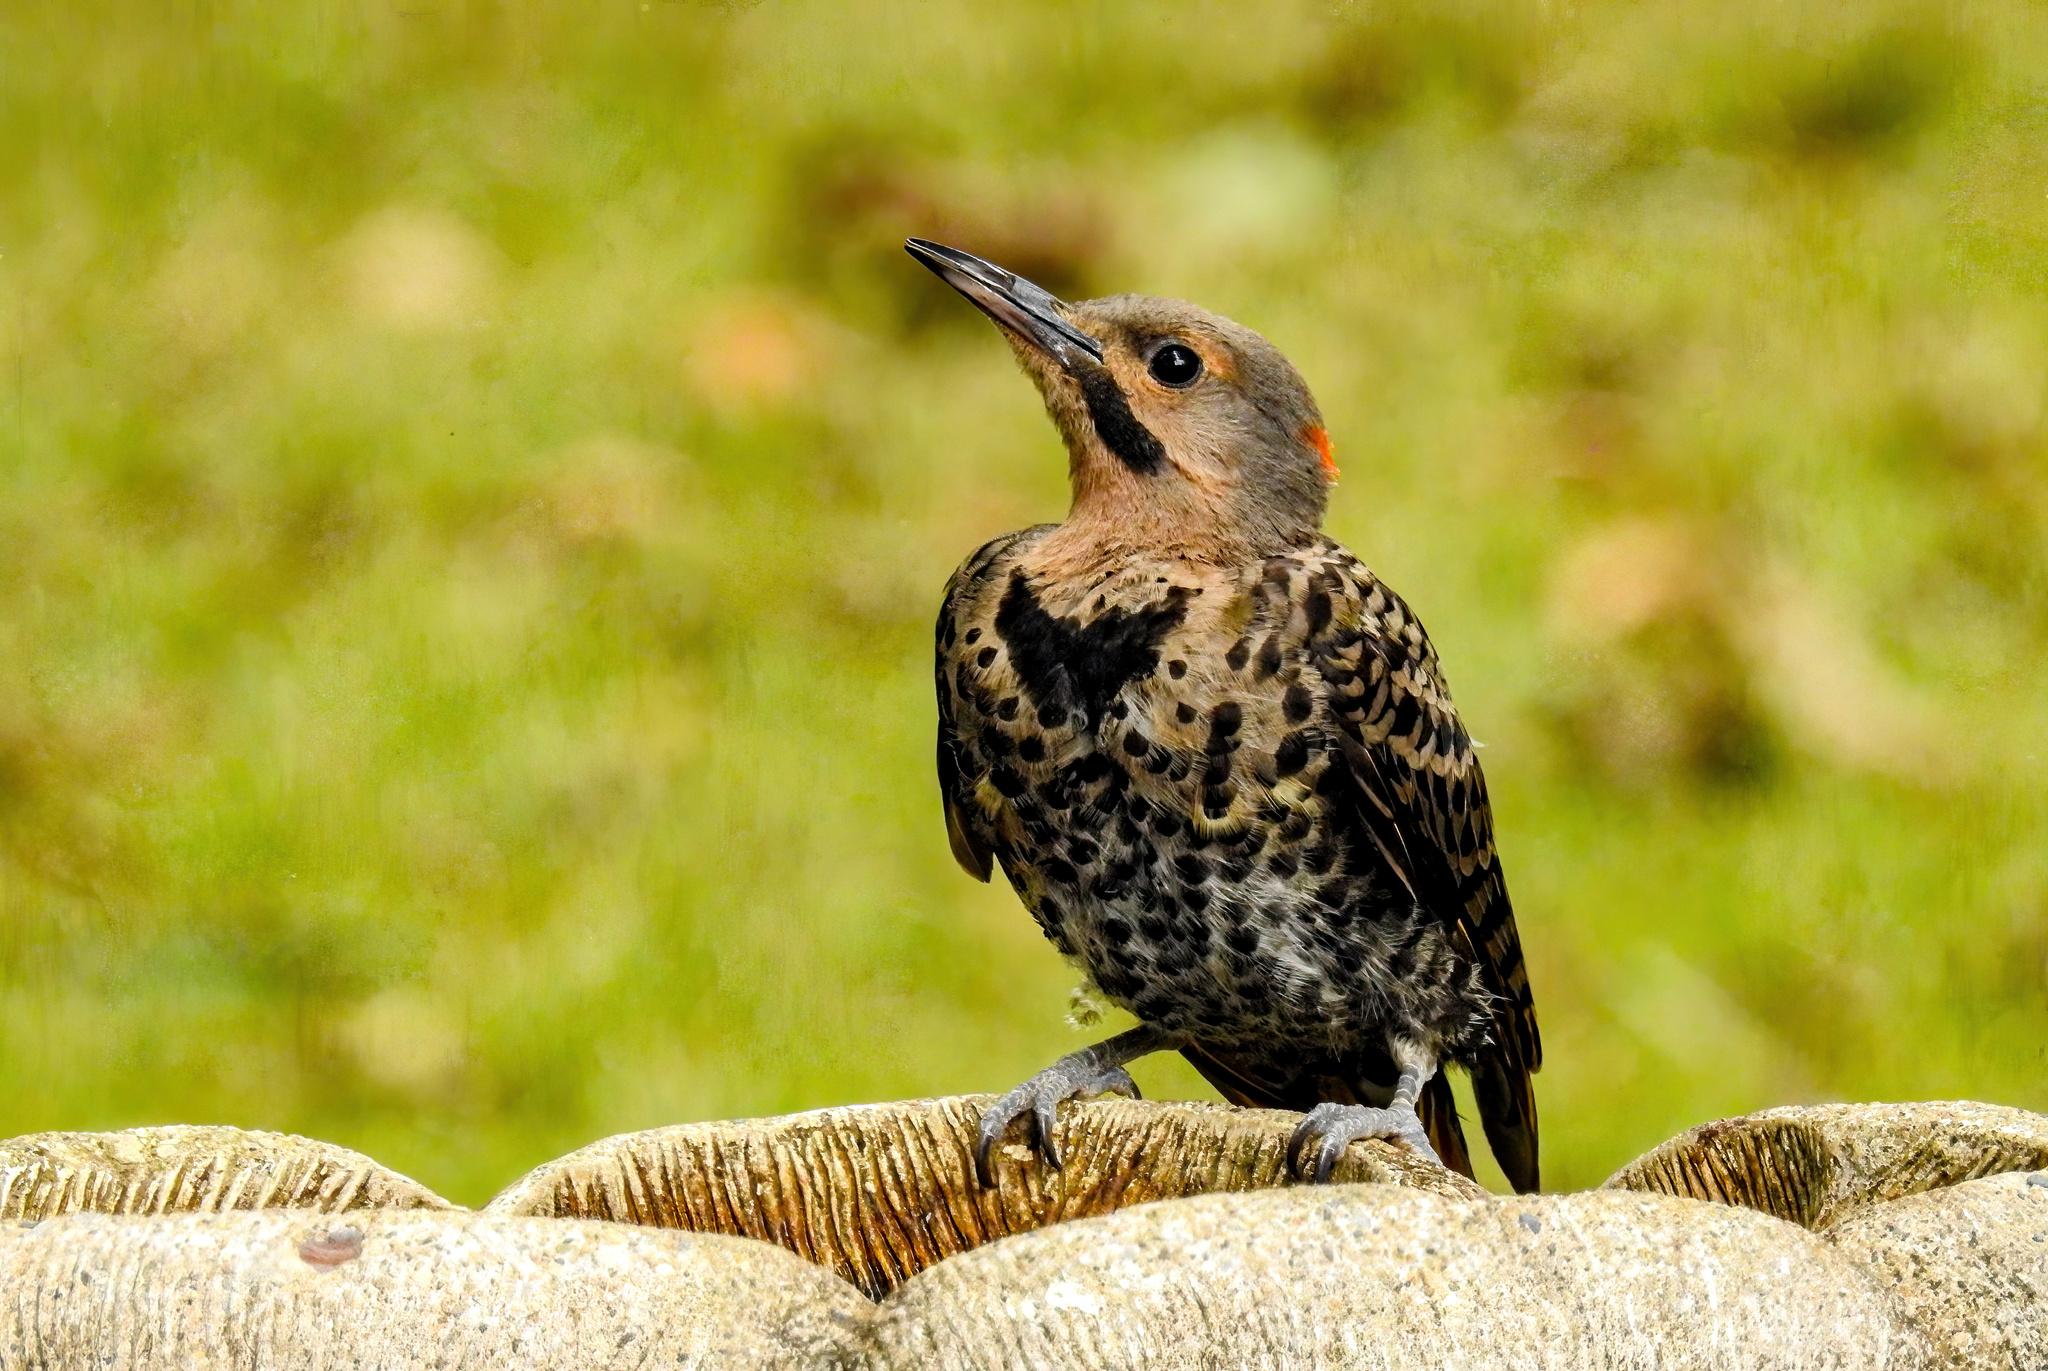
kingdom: Animalia
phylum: Chordata
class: Aves
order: Piciformes
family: Picidae
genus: Colaptes
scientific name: Colaptes auratus
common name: Northern flicker
